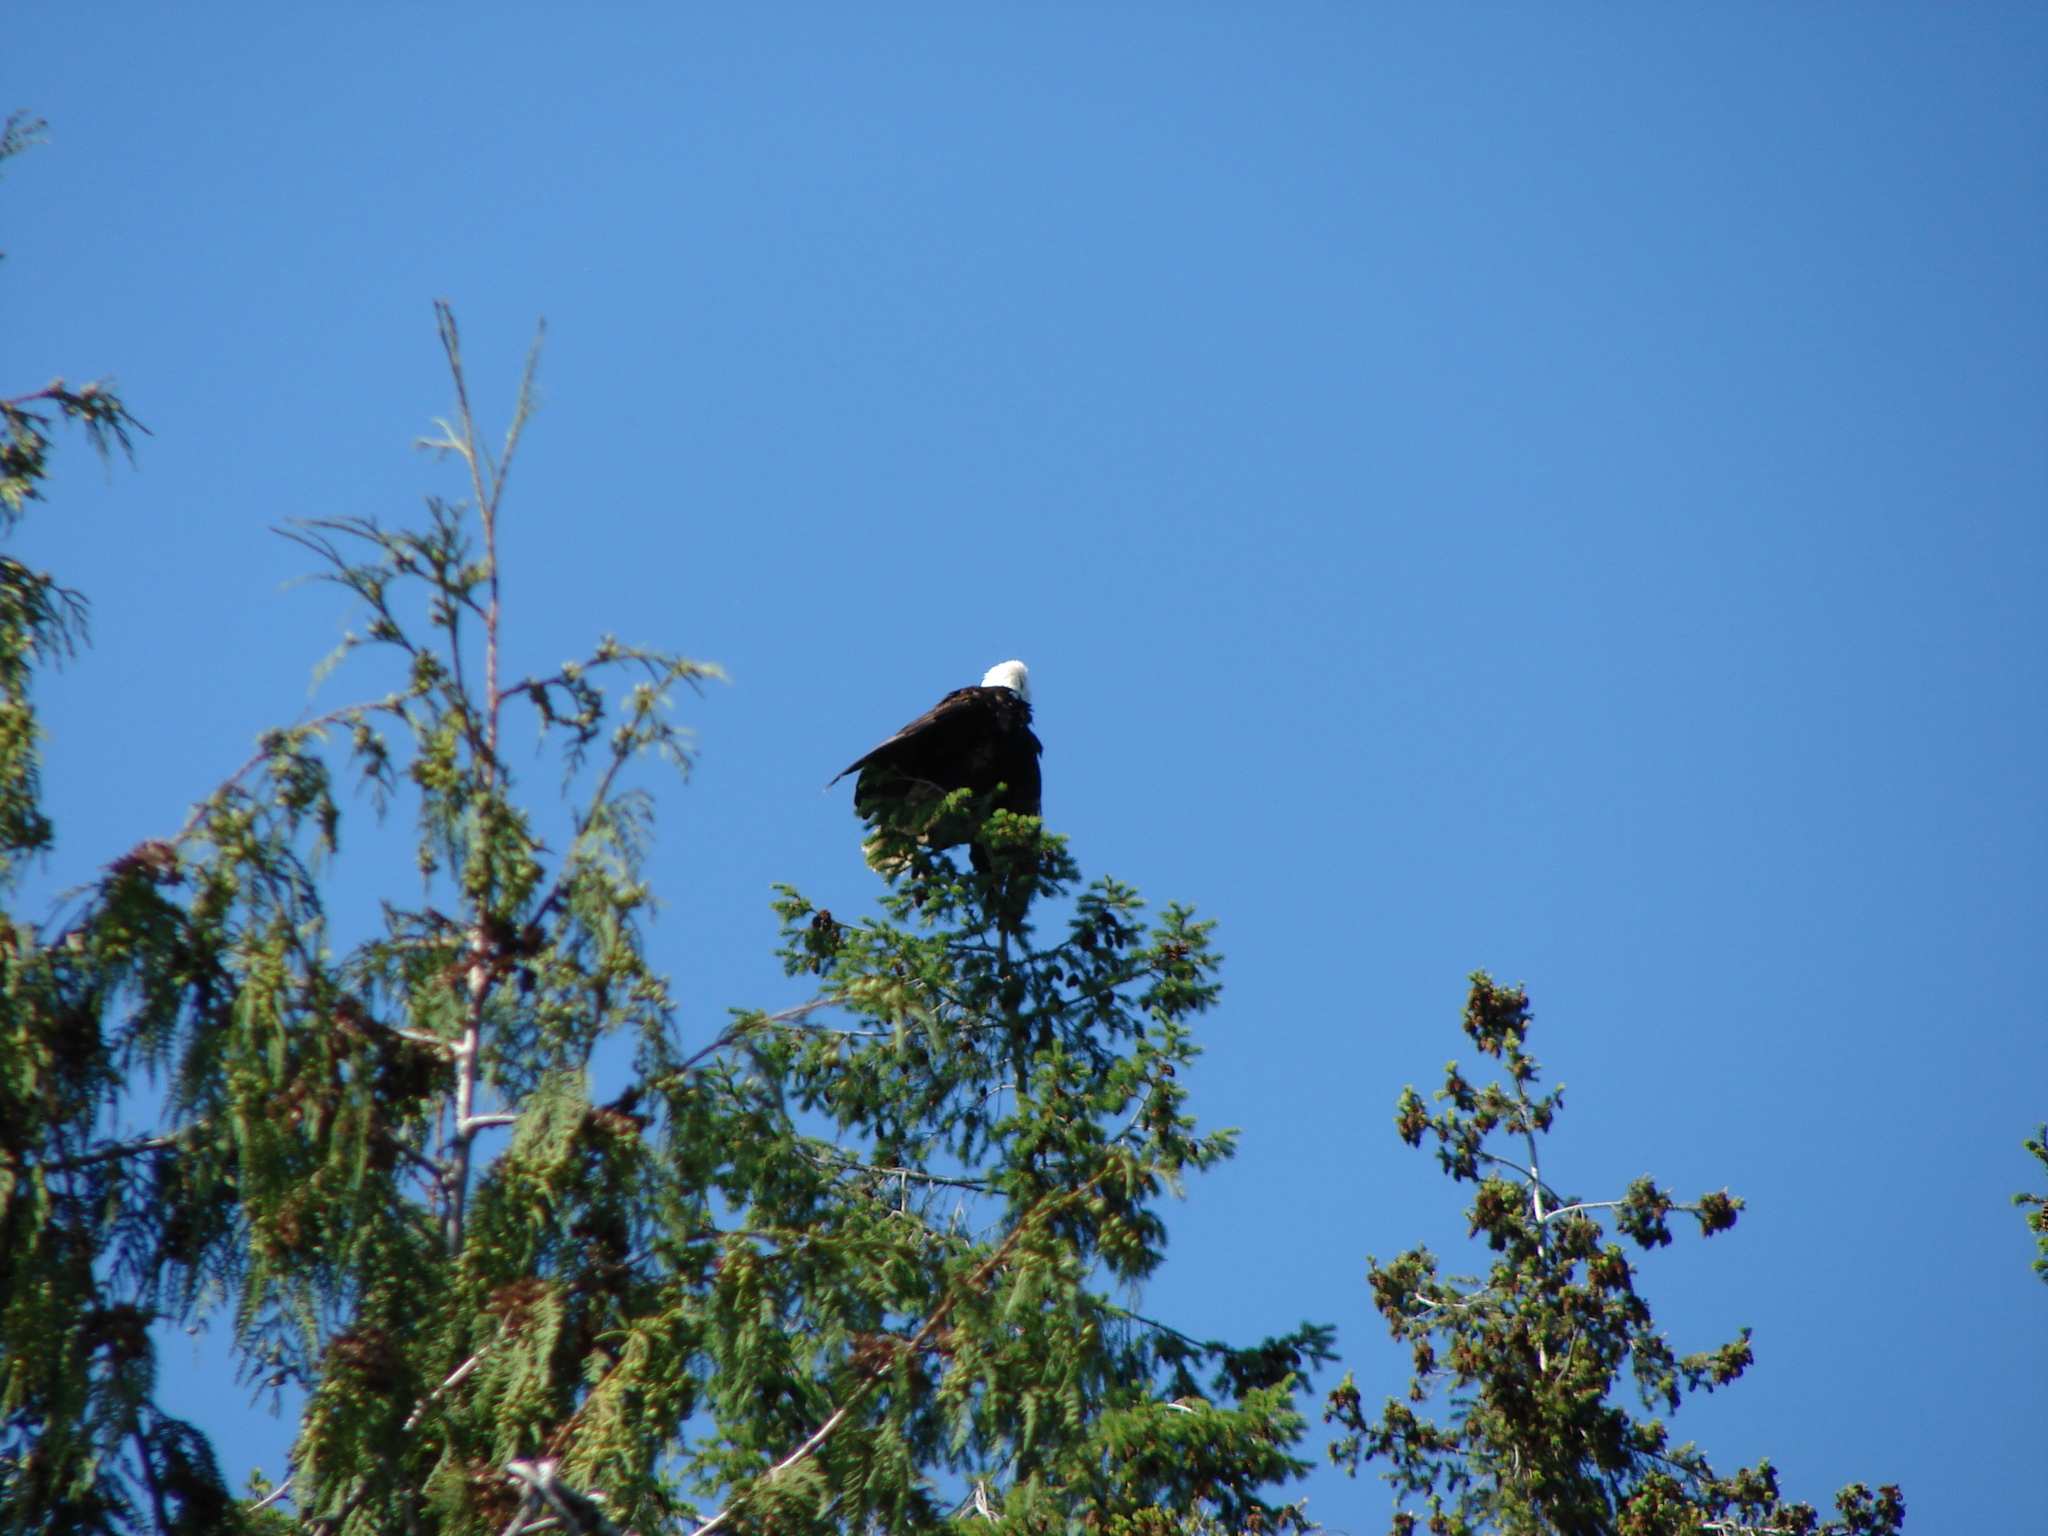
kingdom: Animalia
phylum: Chordata
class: Aves
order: Accipitriformes
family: Accipitridae
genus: Haliaeetus
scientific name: Haliaeetus leucocephalus
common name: Bald eagle
